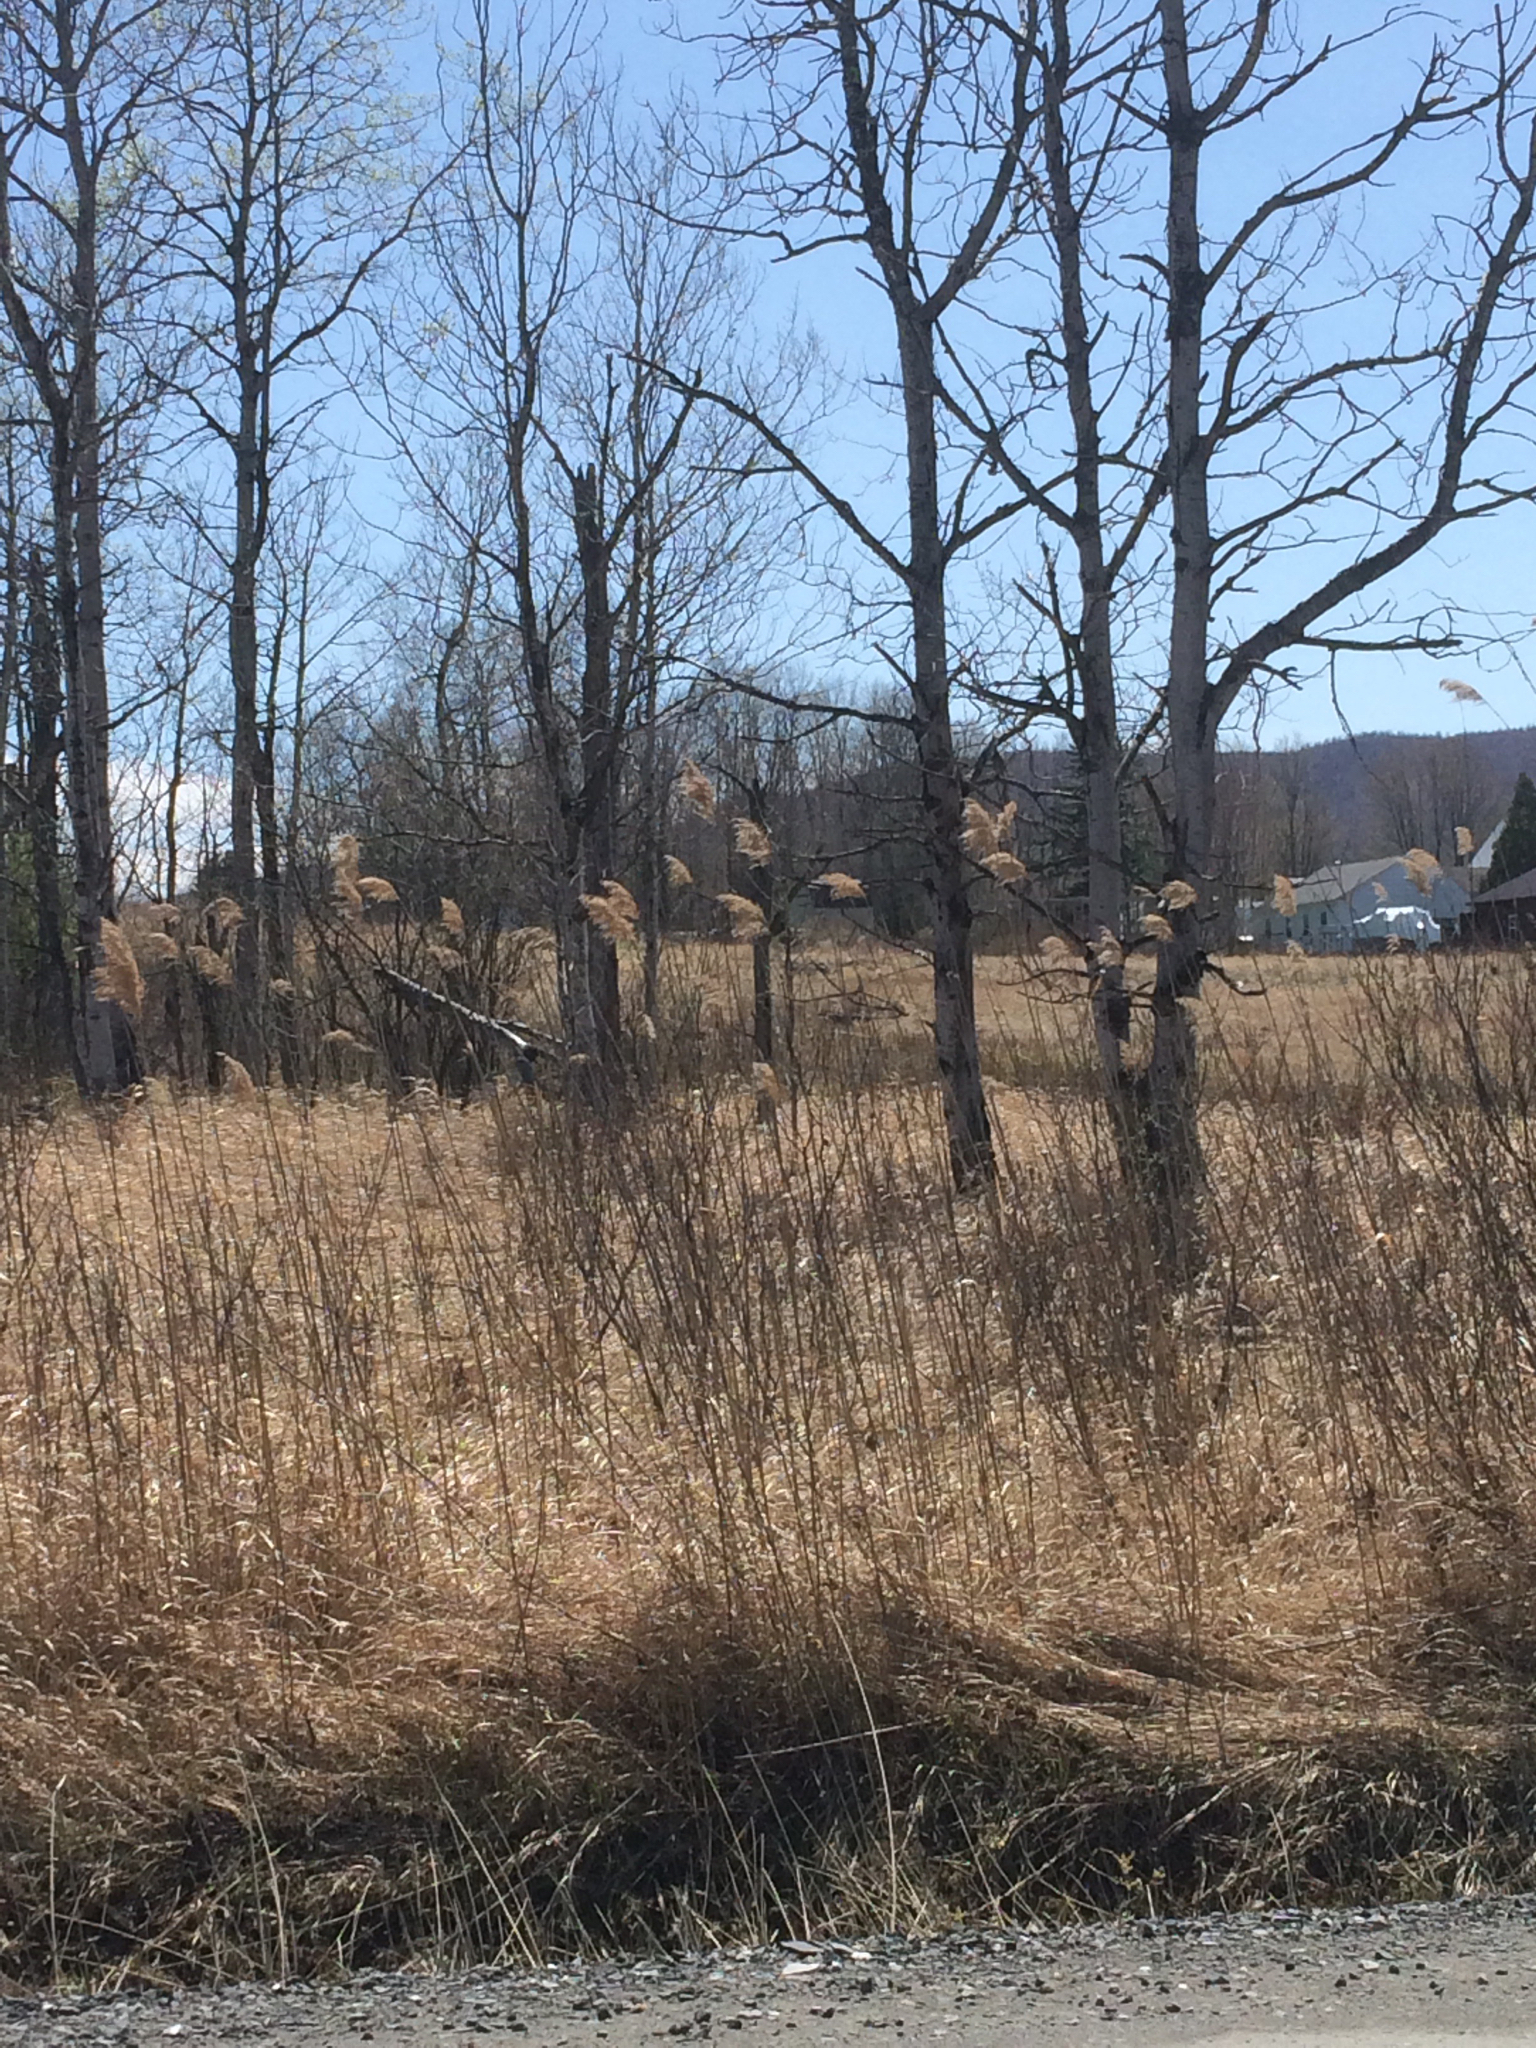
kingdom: Plantae
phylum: Tracheophyta
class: Liliopsida
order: Poales
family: Poaceae
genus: Phragmites
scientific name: Phragmites australis
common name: Common reed
